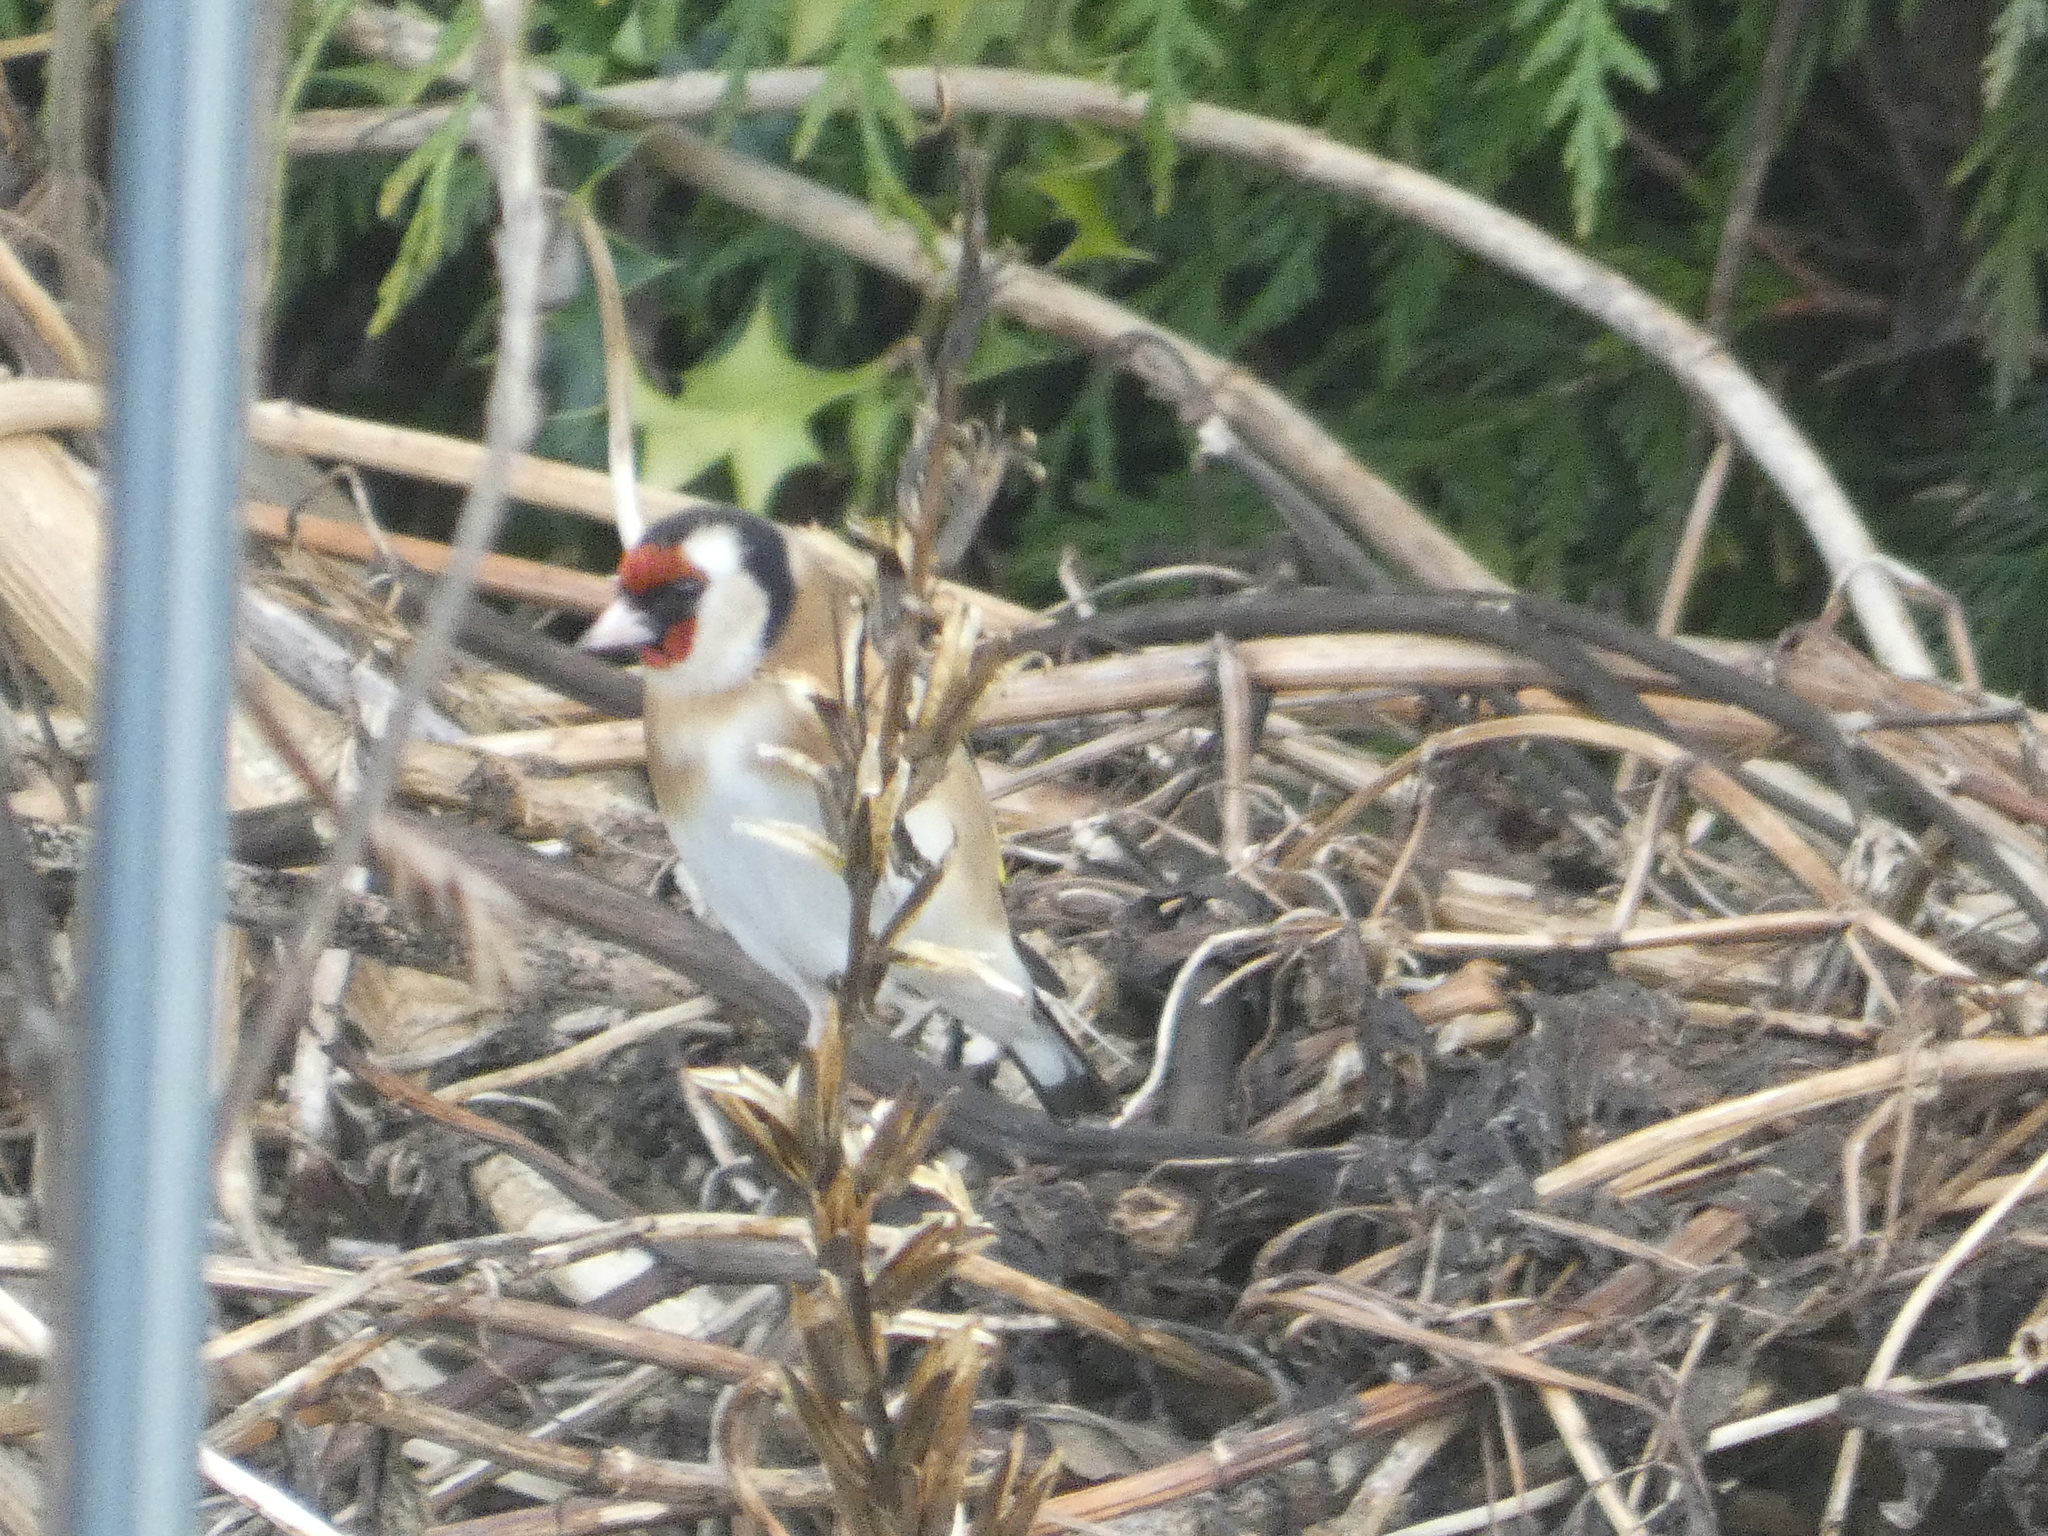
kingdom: Animalia
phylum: Chordata
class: Aves
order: Passeriformes
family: Fringillidae
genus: Carduelis
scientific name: Carduelis carduelis
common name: European goldfinch
